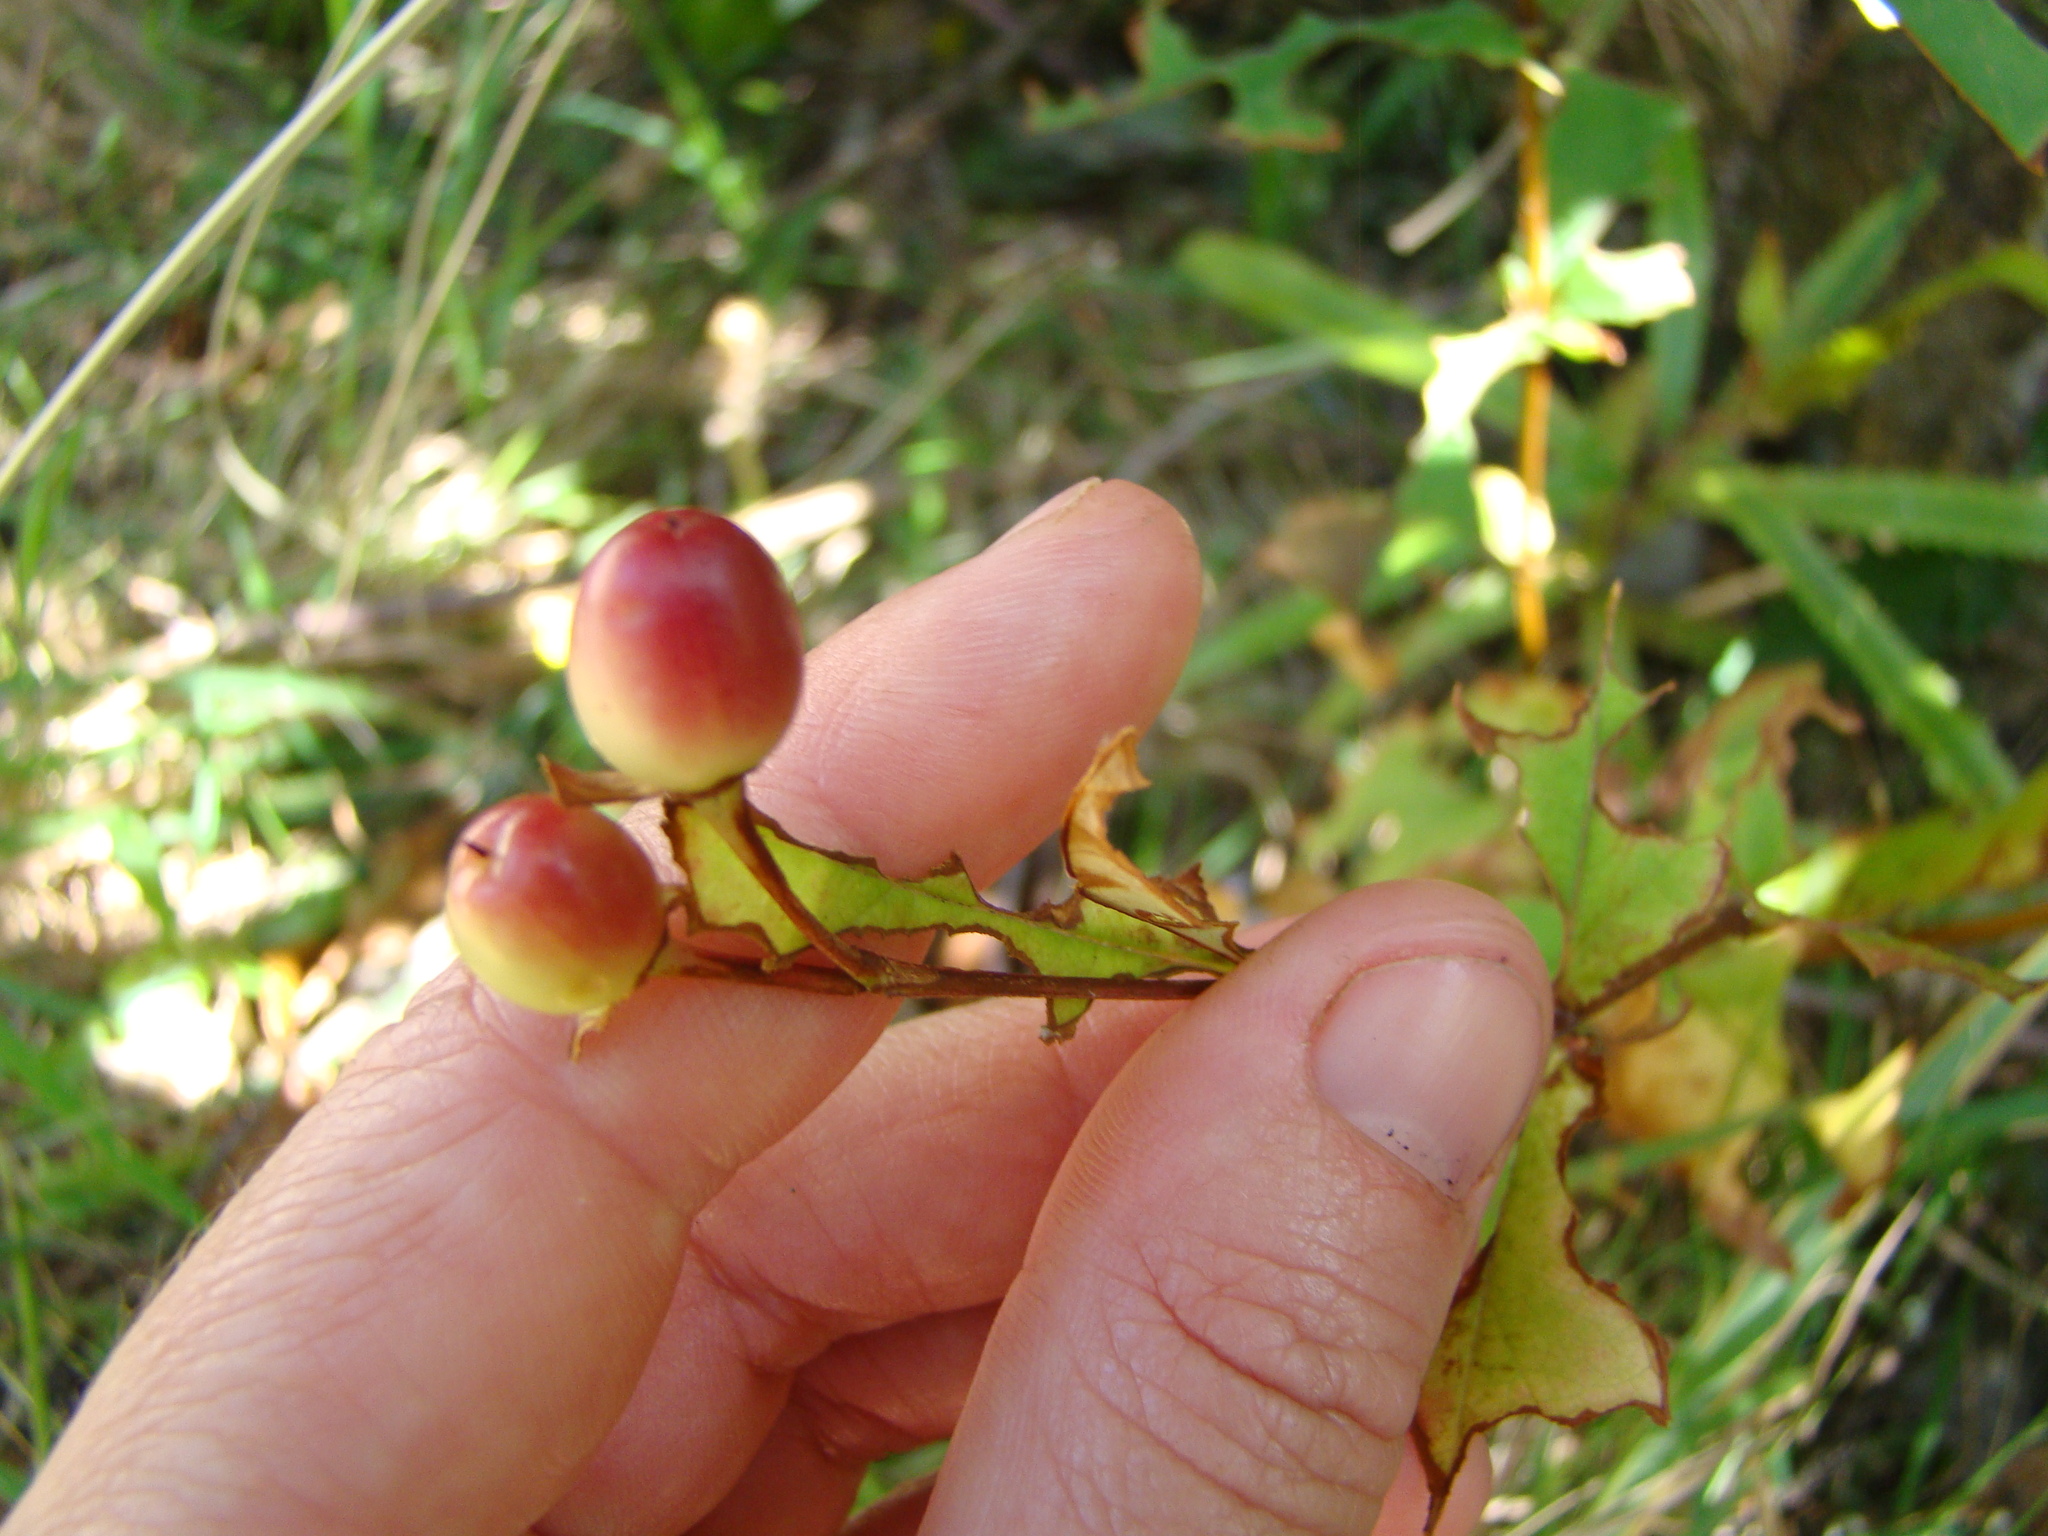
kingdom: Plantae
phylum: Tracheophyta
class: Magnoliopsida
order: Malpighiales
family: Hypericaceae
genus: Hypericum
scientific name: Hypericum androsaemum
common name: Sweet-amber
